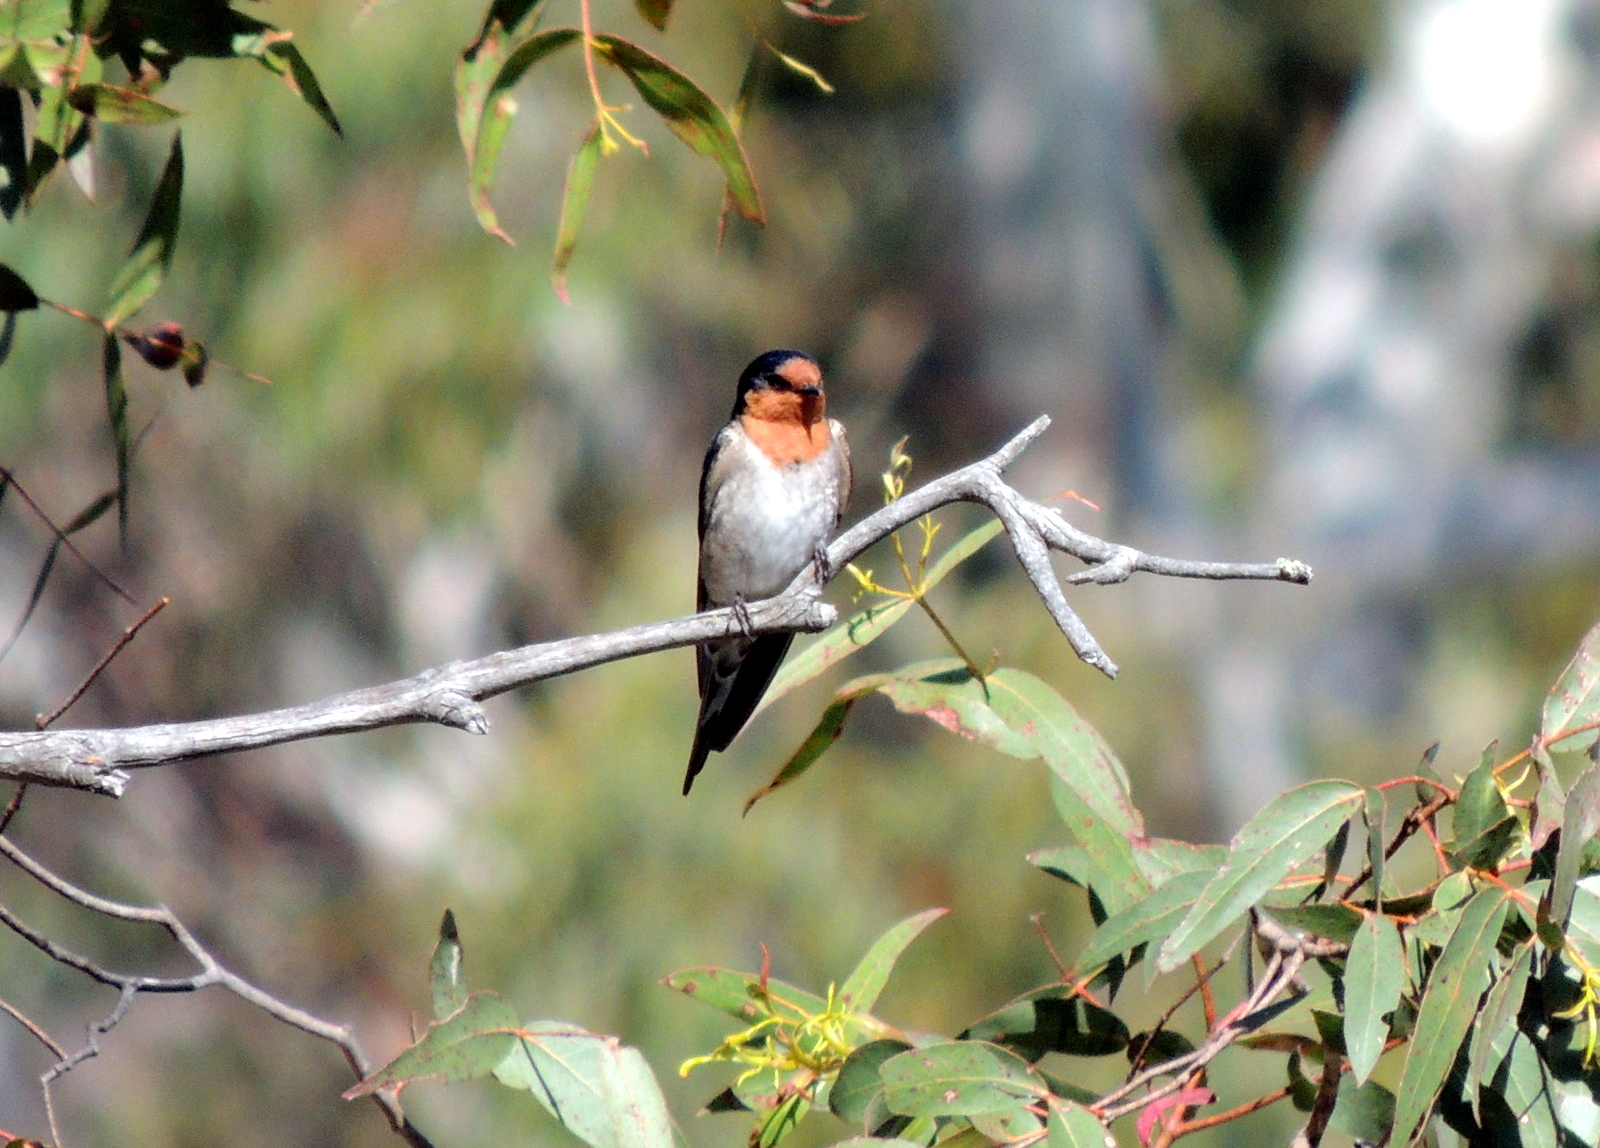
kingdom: Animalia
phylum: Chordata
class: Aves
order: Passeriformes
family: Hirundinidae
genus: Hirundo
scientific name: Hirundo neoxena
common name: Welcome swallow
